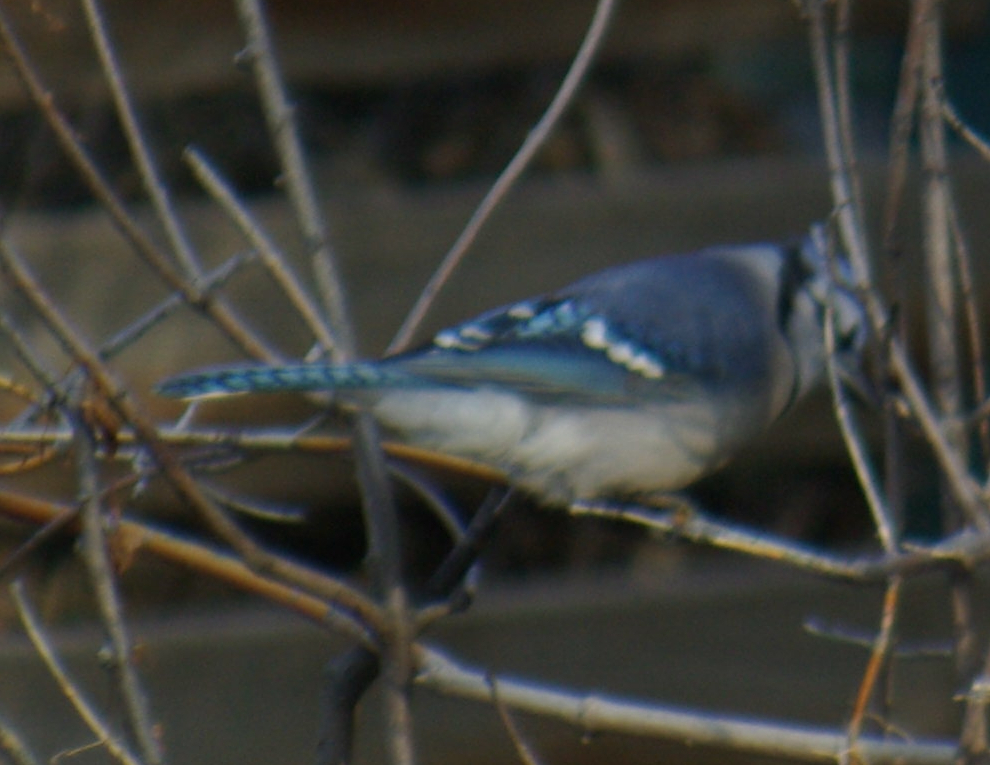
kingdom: Animalia
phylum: Chordata
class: Aves
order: Passeriformes
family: Corvidae
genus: Cyanocitta
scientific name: Cyanocitta cristata
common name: Blue jay
